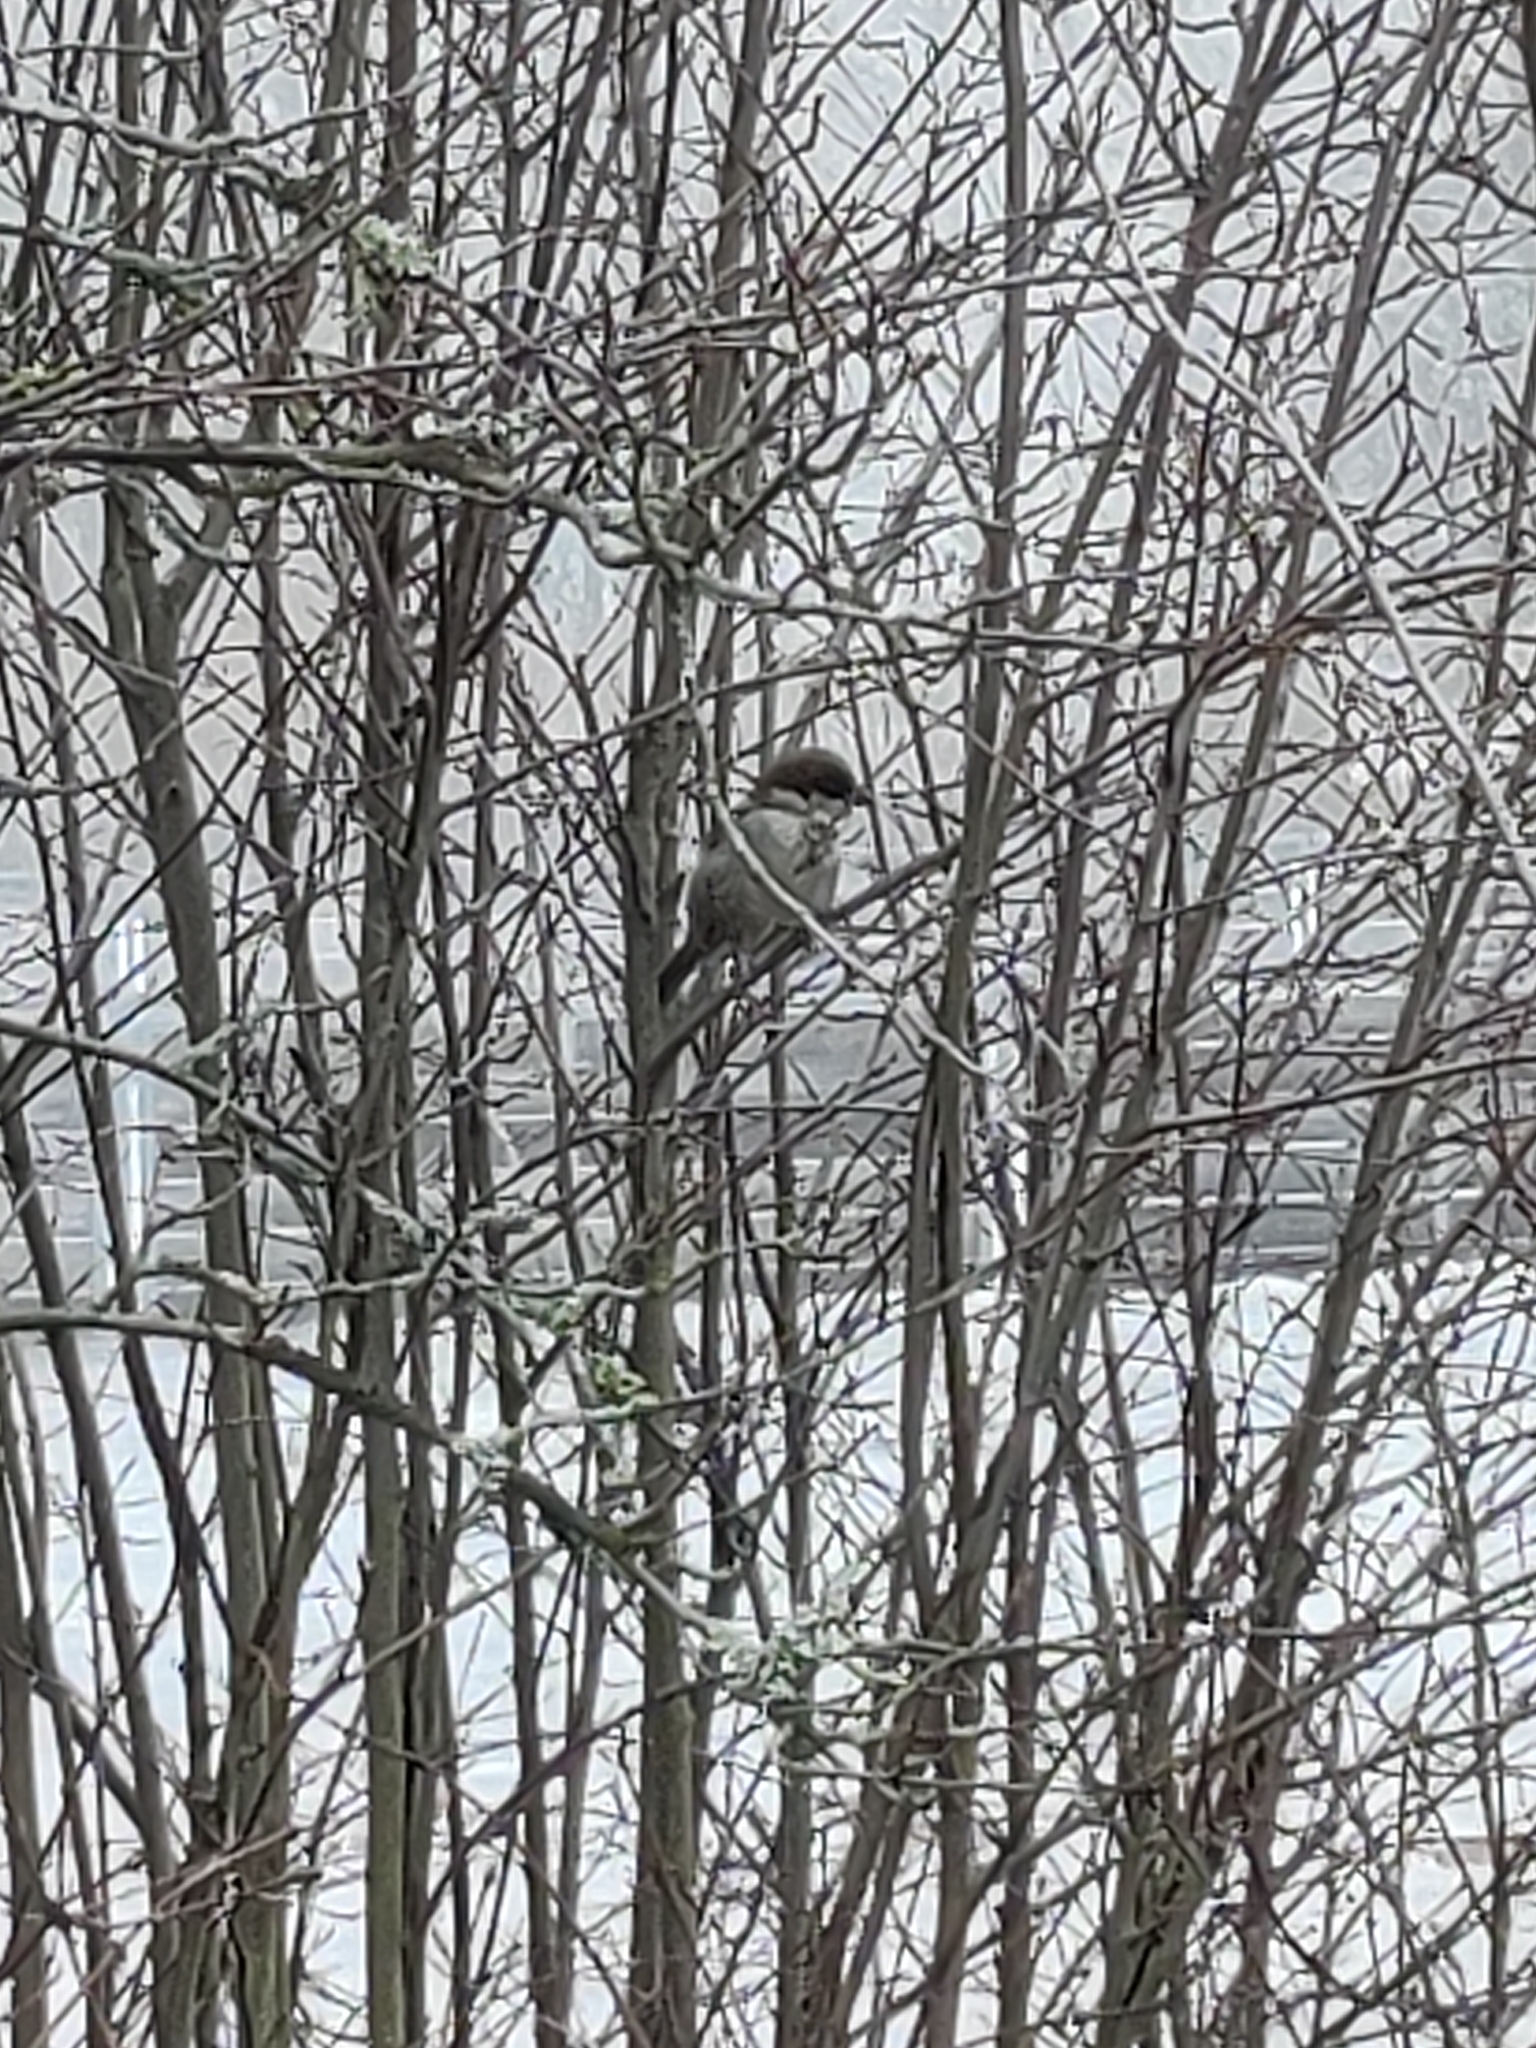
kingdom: Animalia
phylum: Chordata
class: Aves
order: Passeriformes
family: Passeridae
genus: Passer
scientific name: Passer domesticus
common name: House sparrow
